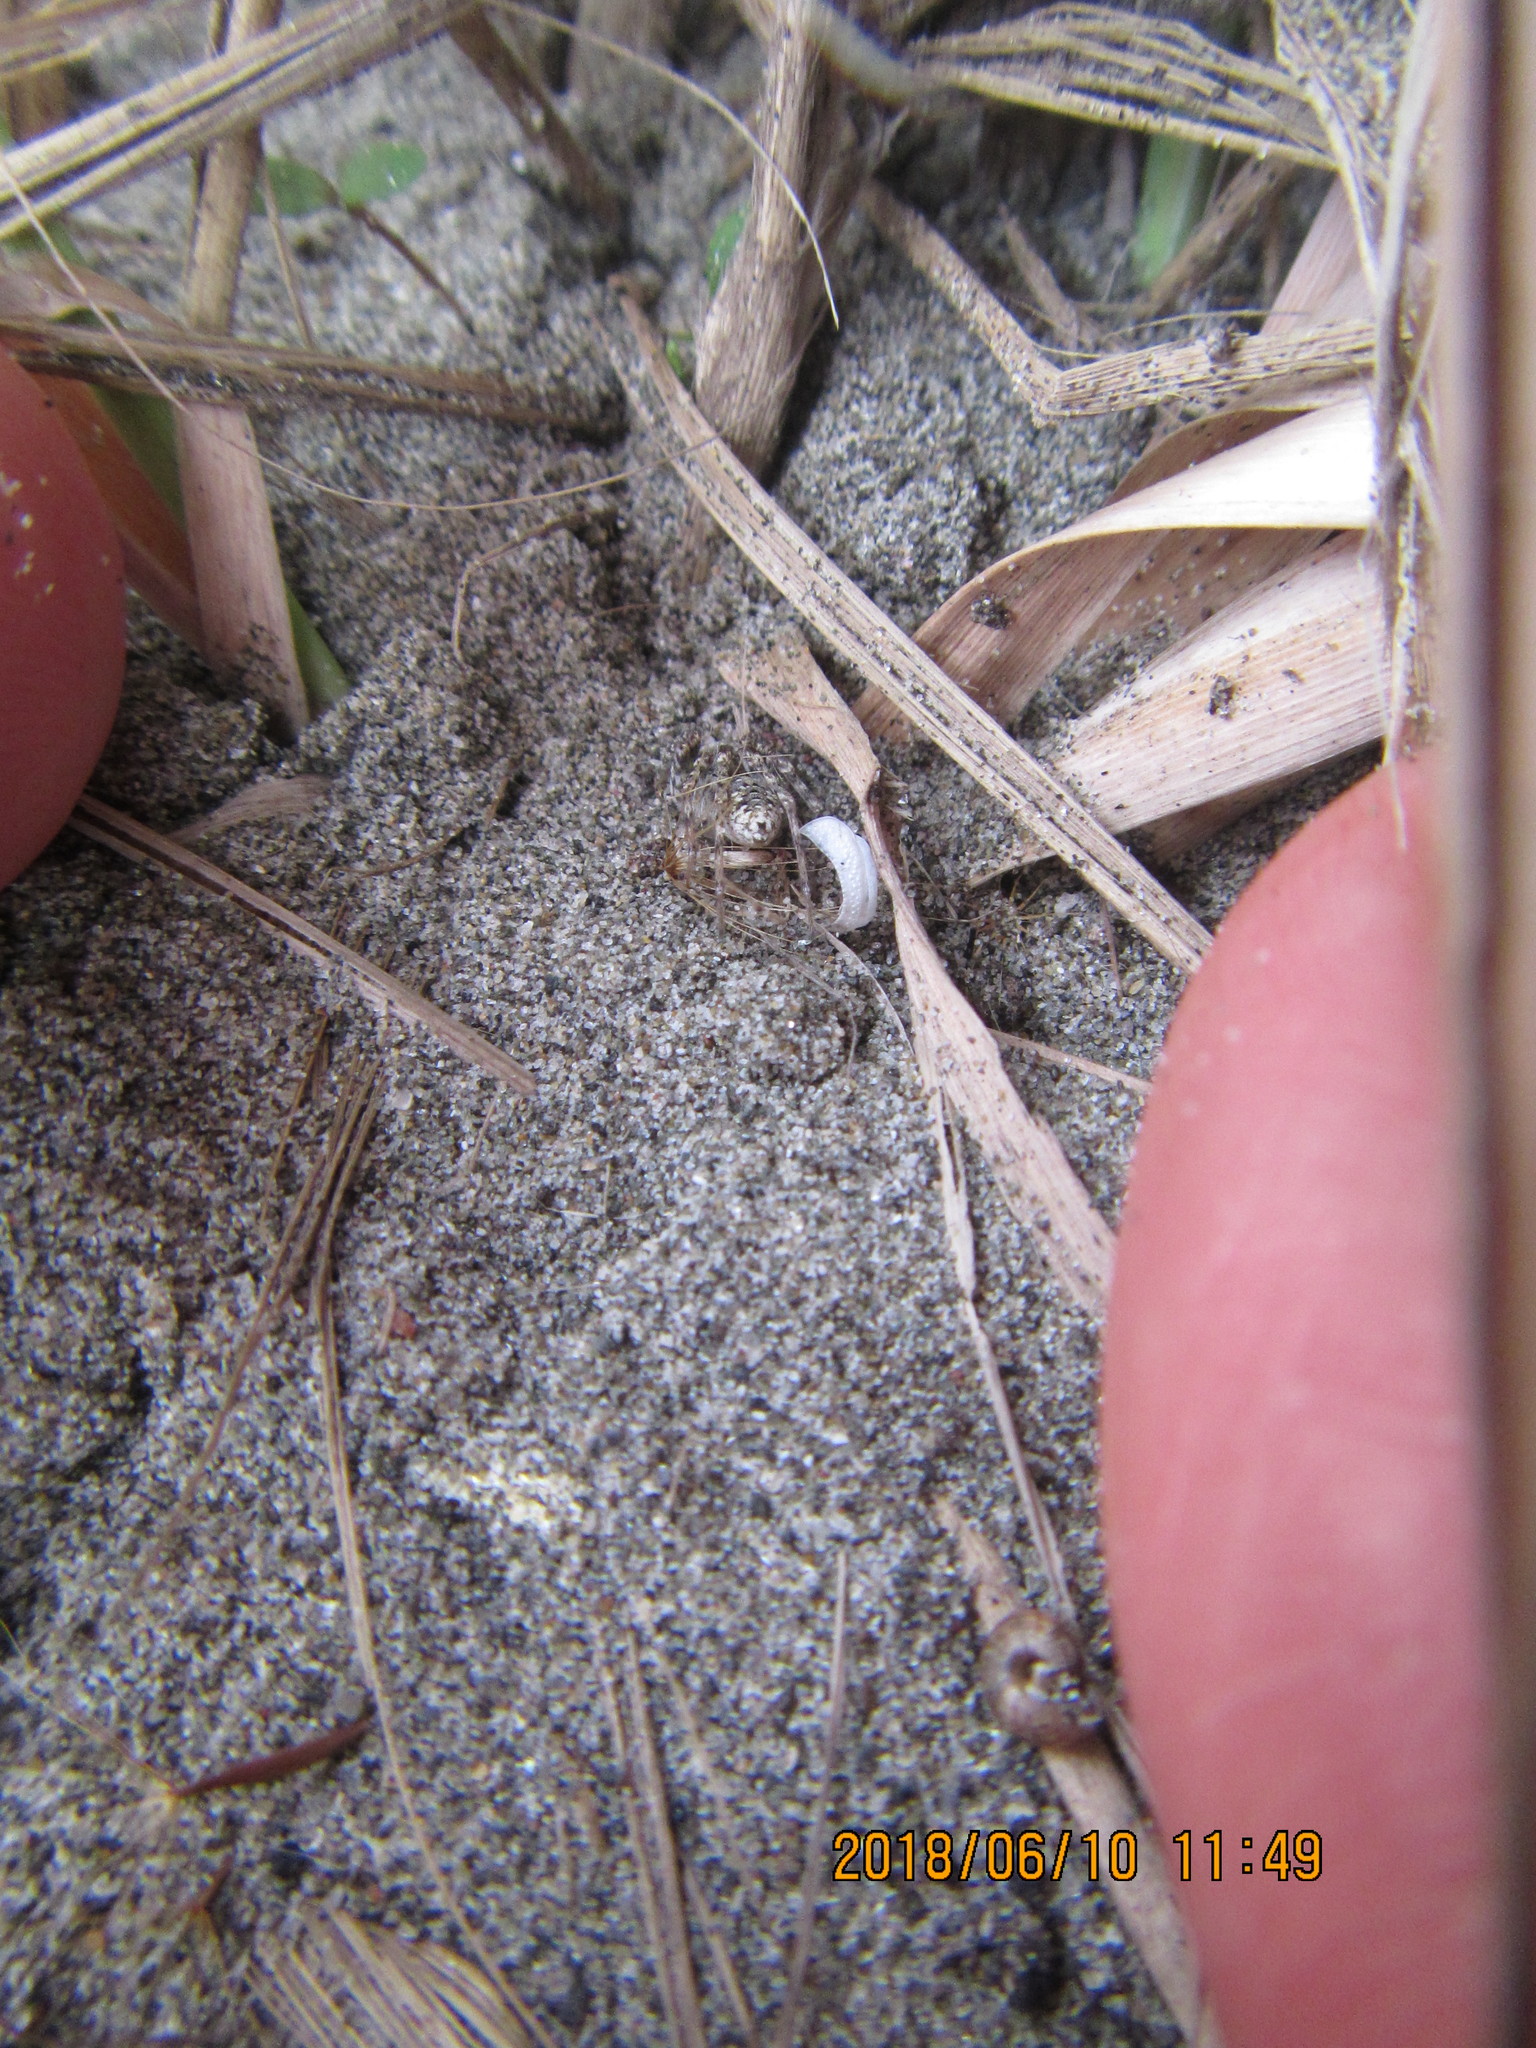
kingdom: Animalia
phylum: Arthropoda
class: Arachnida
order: Araneae
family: Lycosidae
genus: Anoteropsis
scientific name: Anoteropsis litoralis
